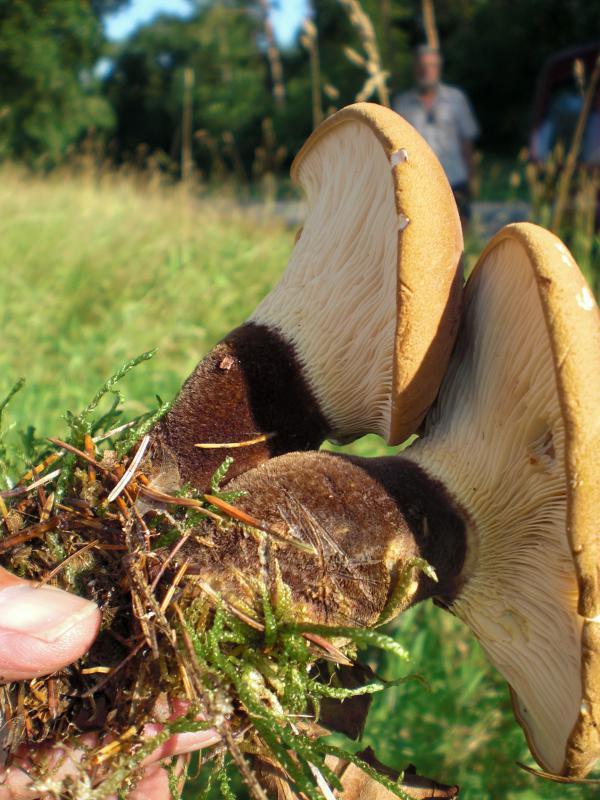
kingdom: Fungi
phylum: Basidiomycota
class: Agaricomycetes
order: Boletales
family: Tapinellaceae
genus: Tapinella
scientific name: Tapinella atrotomentosa
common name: Velvet rollrim
